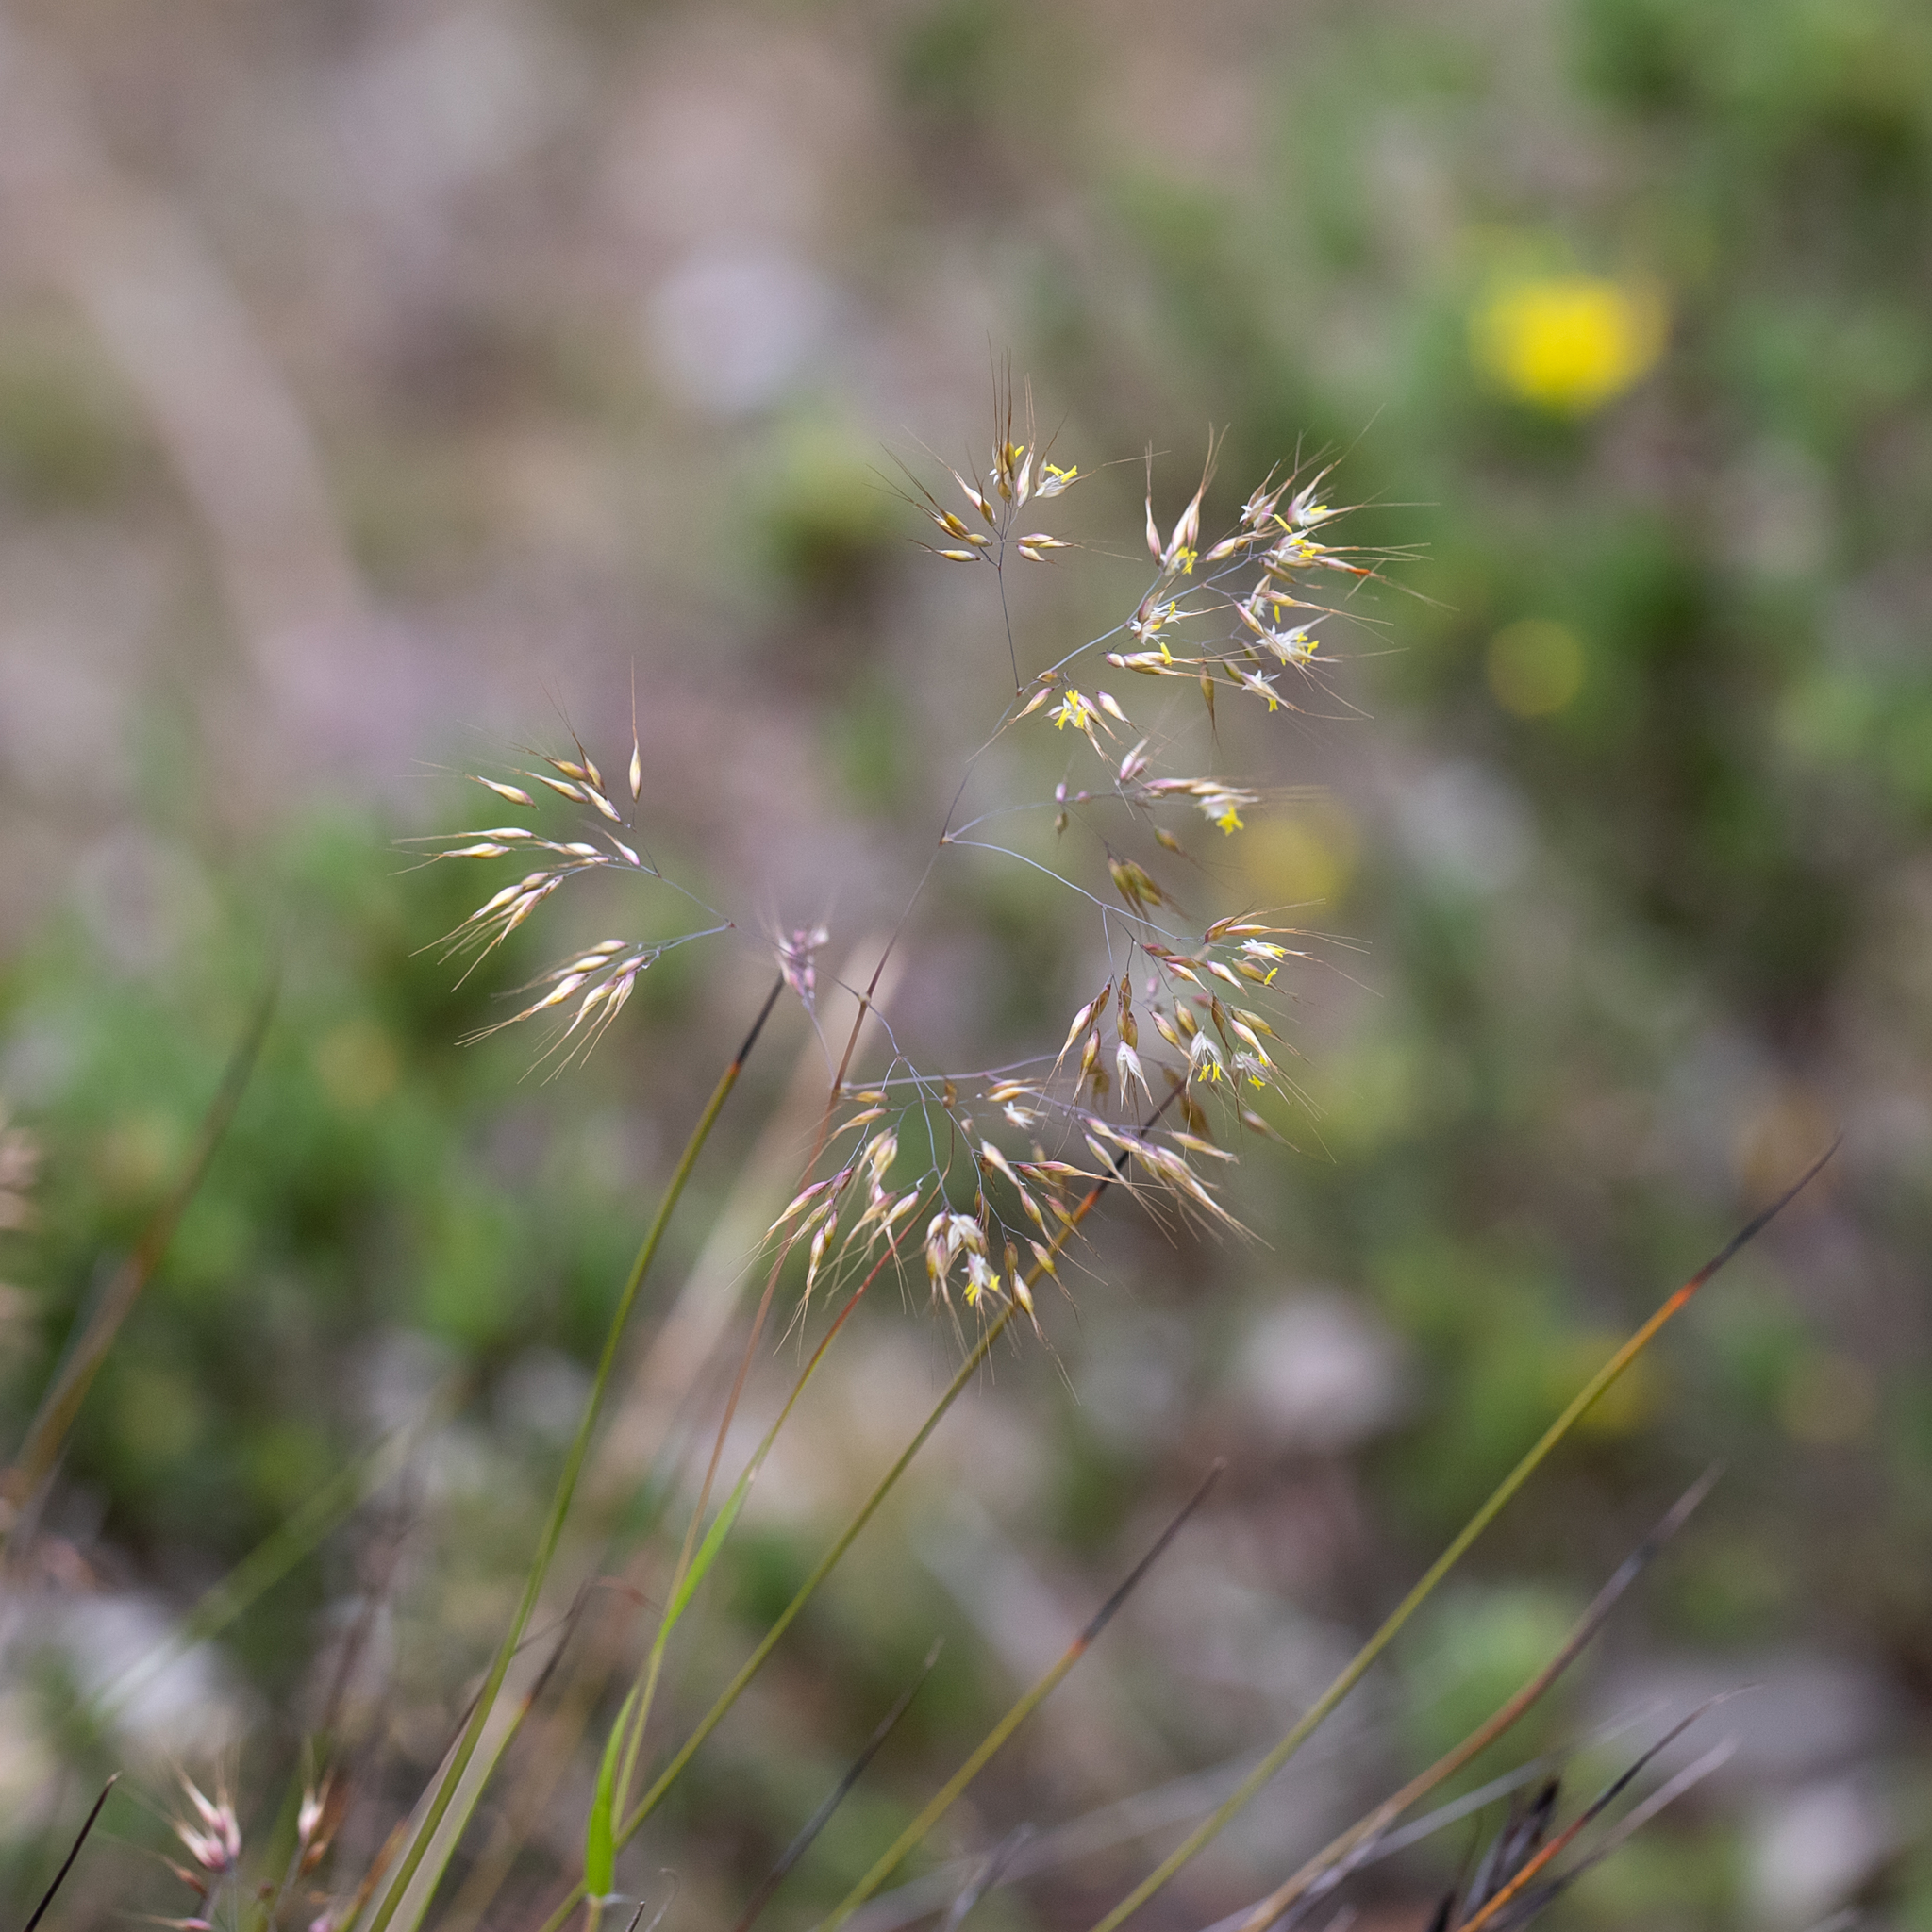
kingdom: Plantae
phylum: Tracheophyta
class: Liliopsida
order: Poales
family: Poaceae
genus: Pentameris
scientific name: Pentameris pallida
